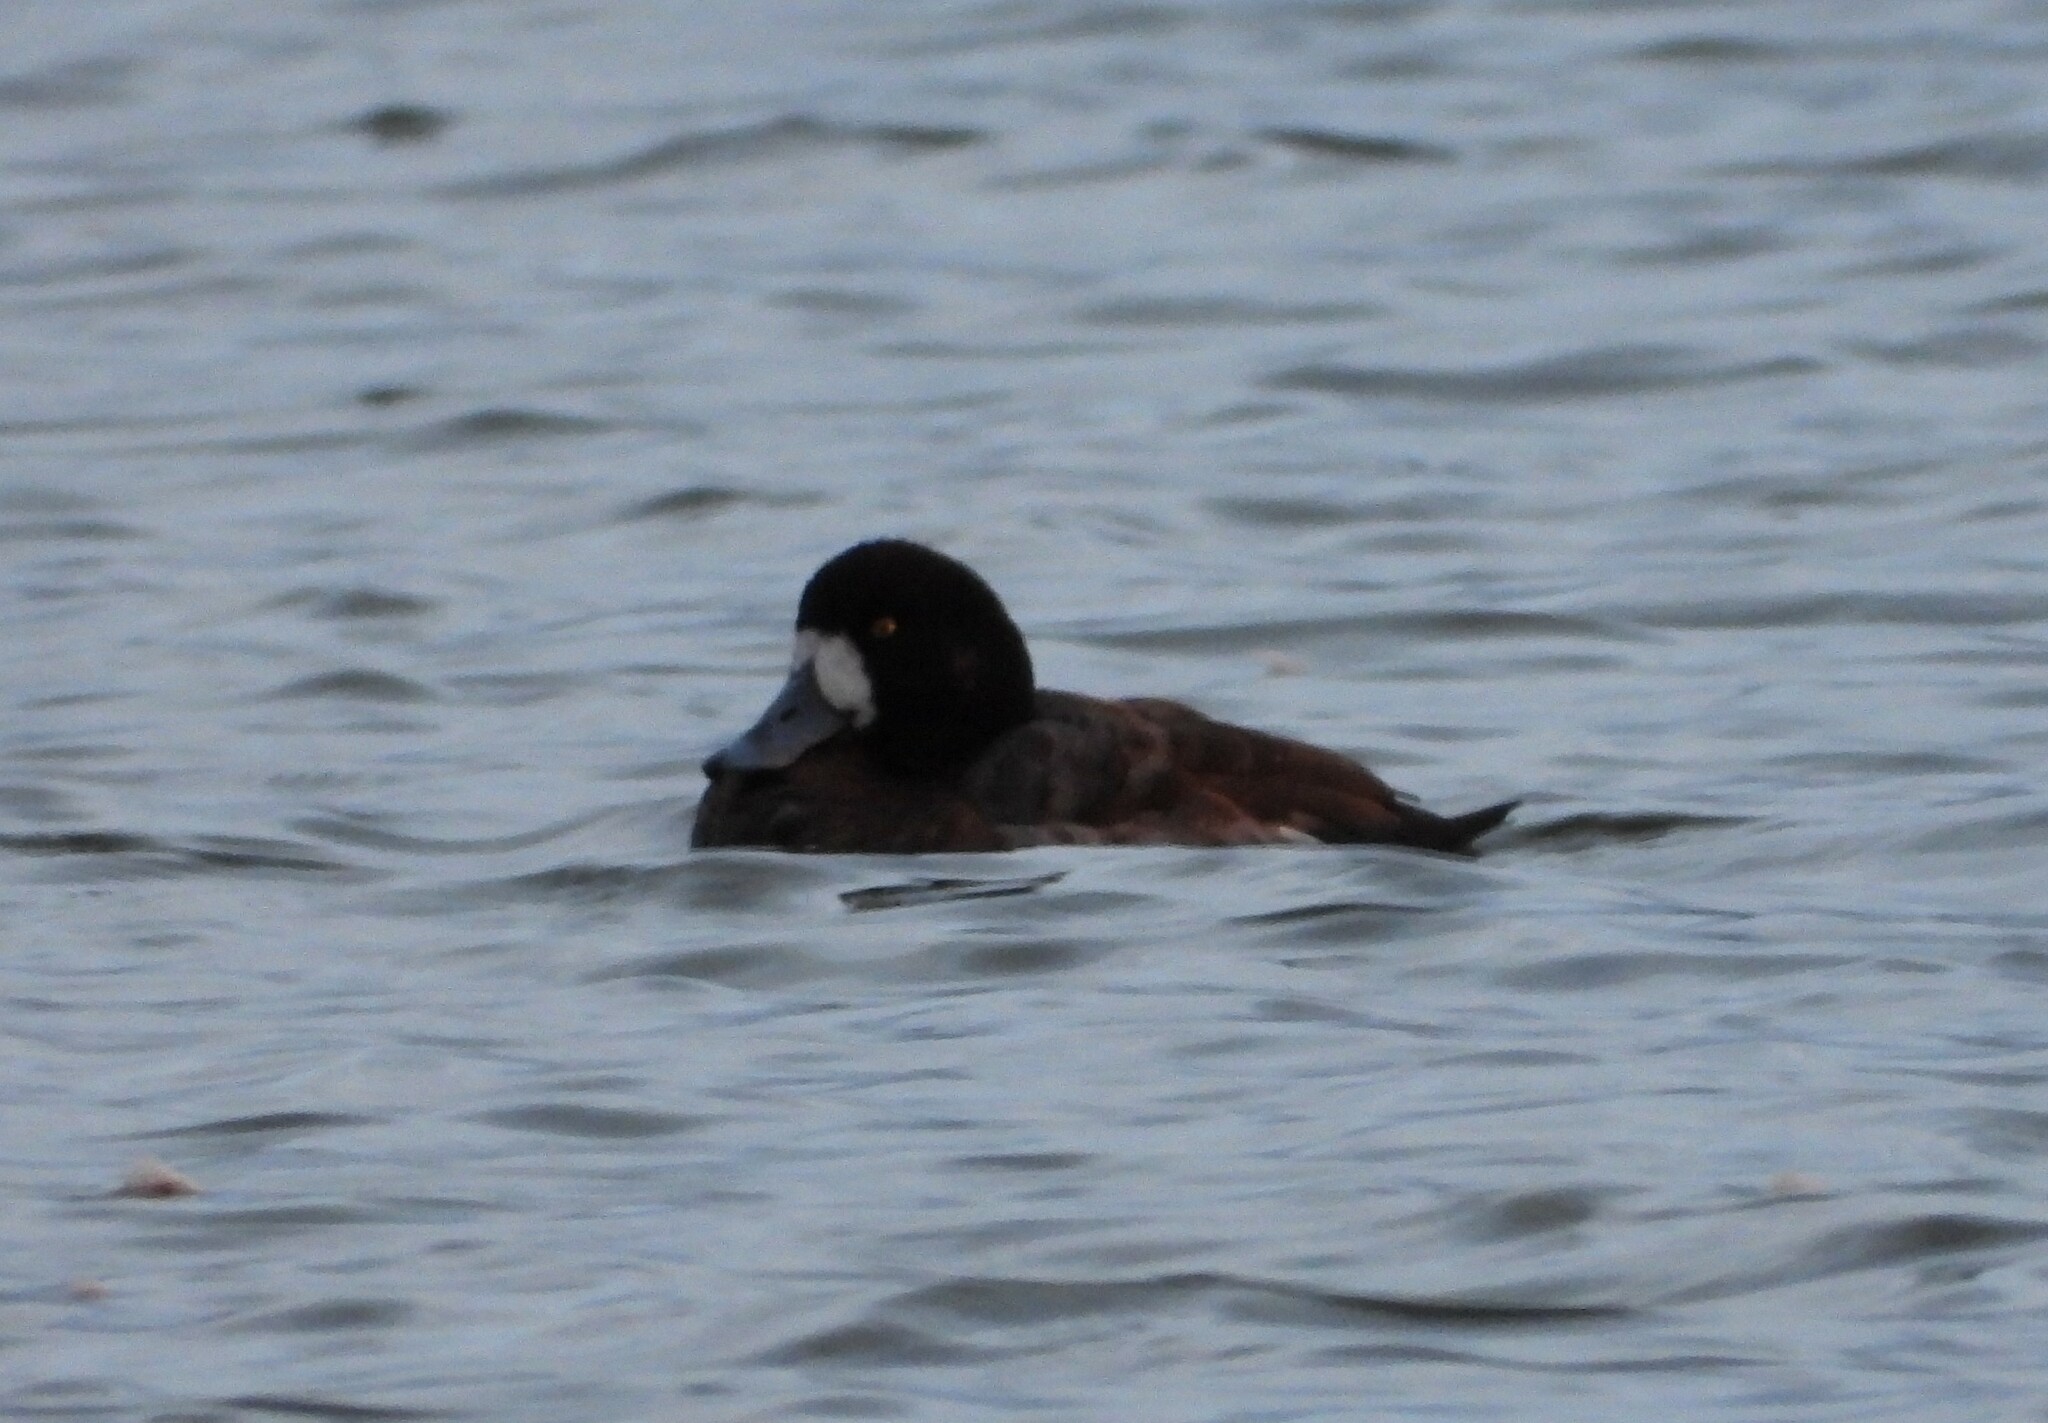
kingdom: Animalia
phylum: Chordata
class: Aves
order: Anseriformes
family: Anatidae
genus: Aythya
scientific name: Aythya marila
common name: Greater scaup
